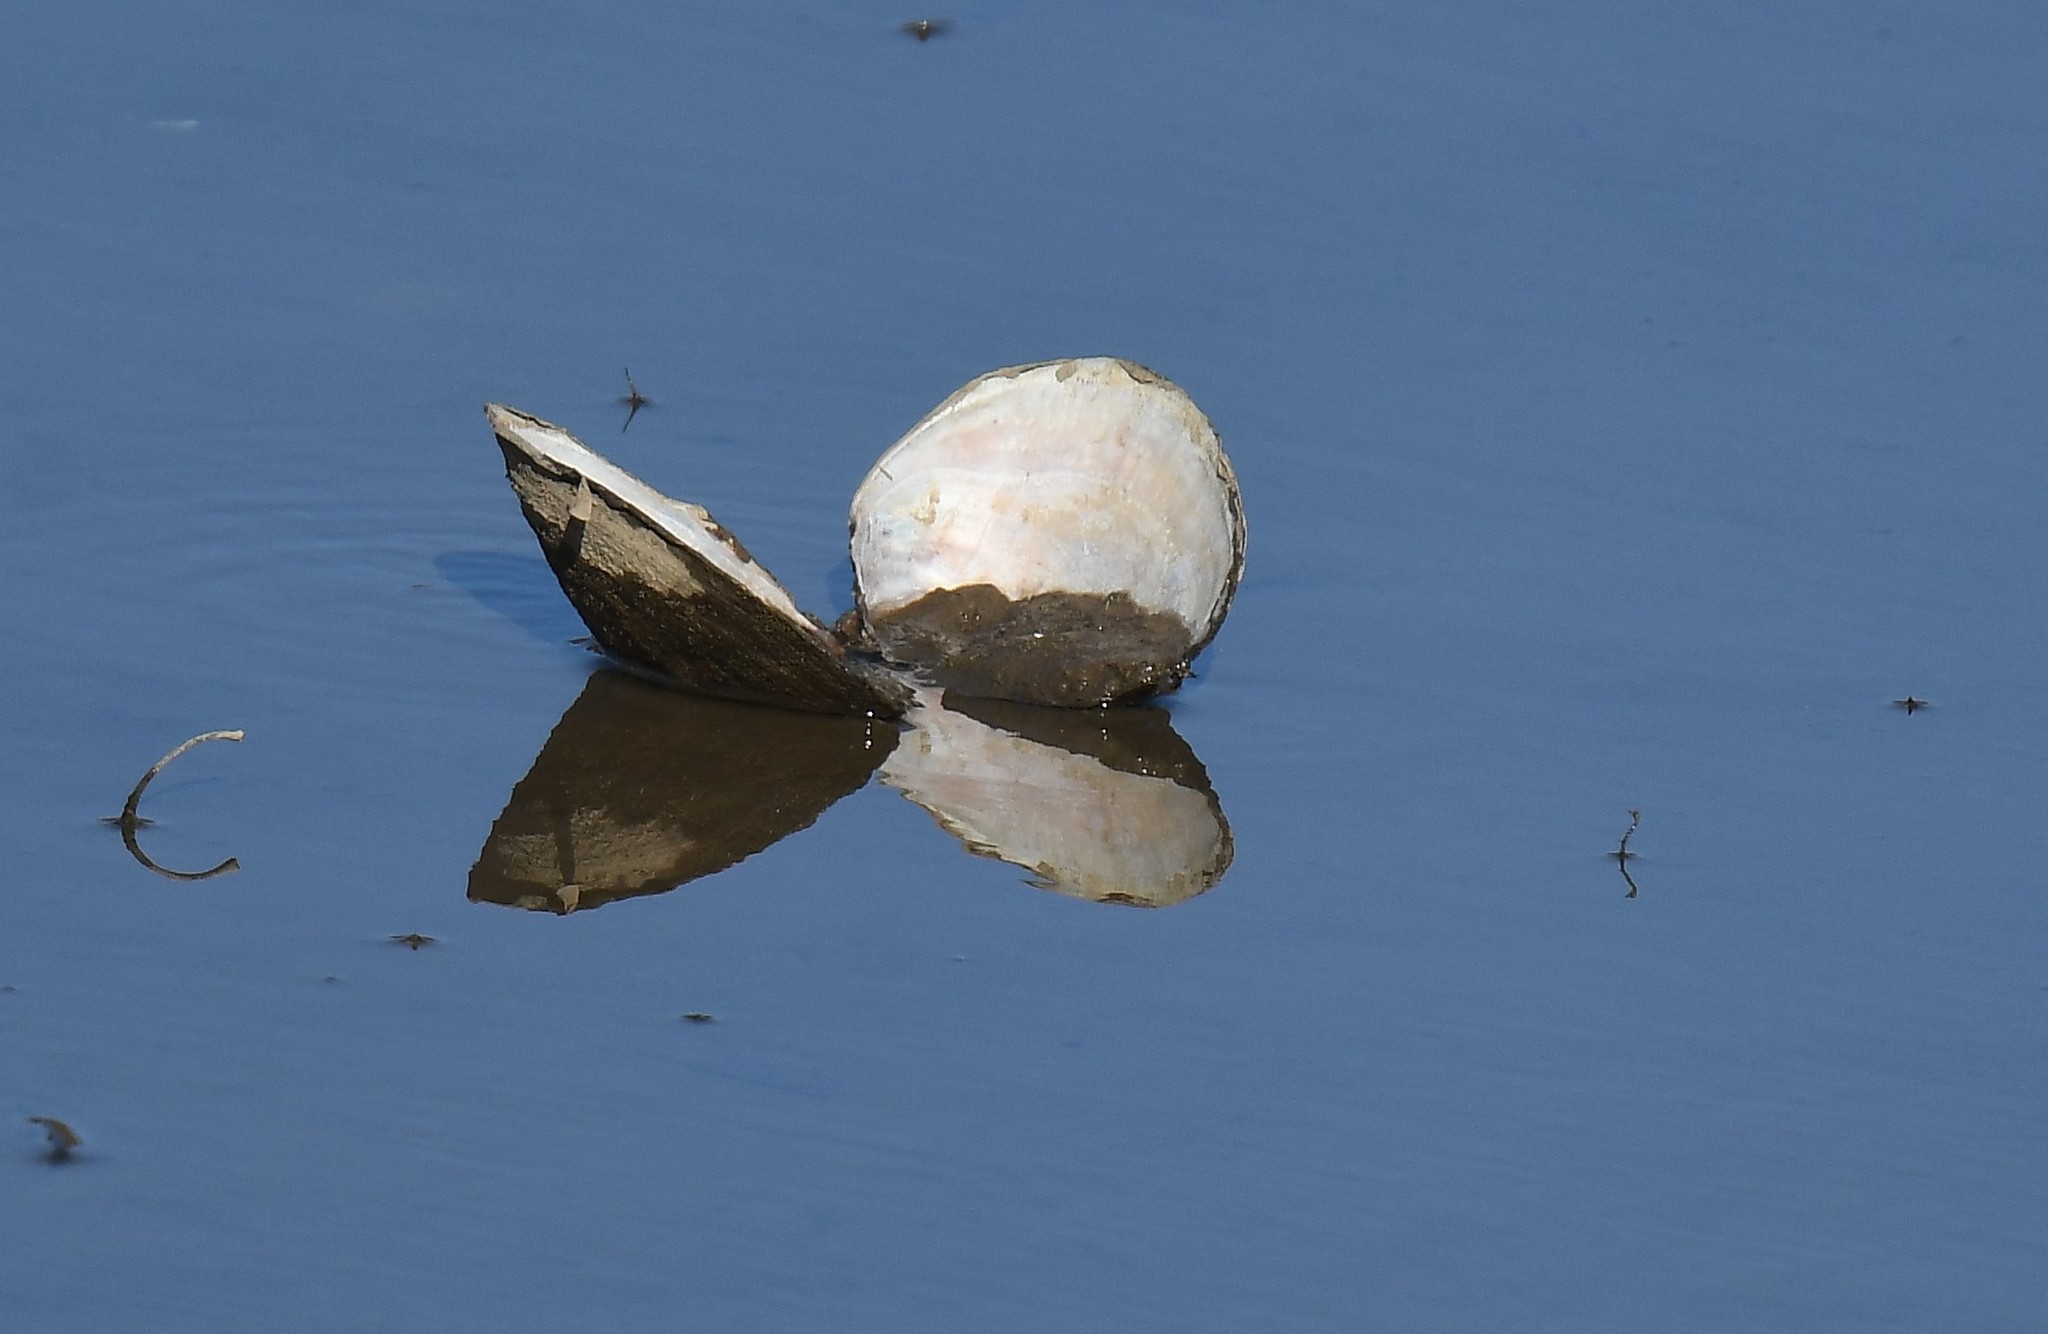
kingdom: Animalia
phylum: Mollusca
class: Bivalvia
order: Unionida
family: Unionidae
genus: Utterbackiana
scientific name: Utterbackiana suborbiculata
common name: Flat floater
